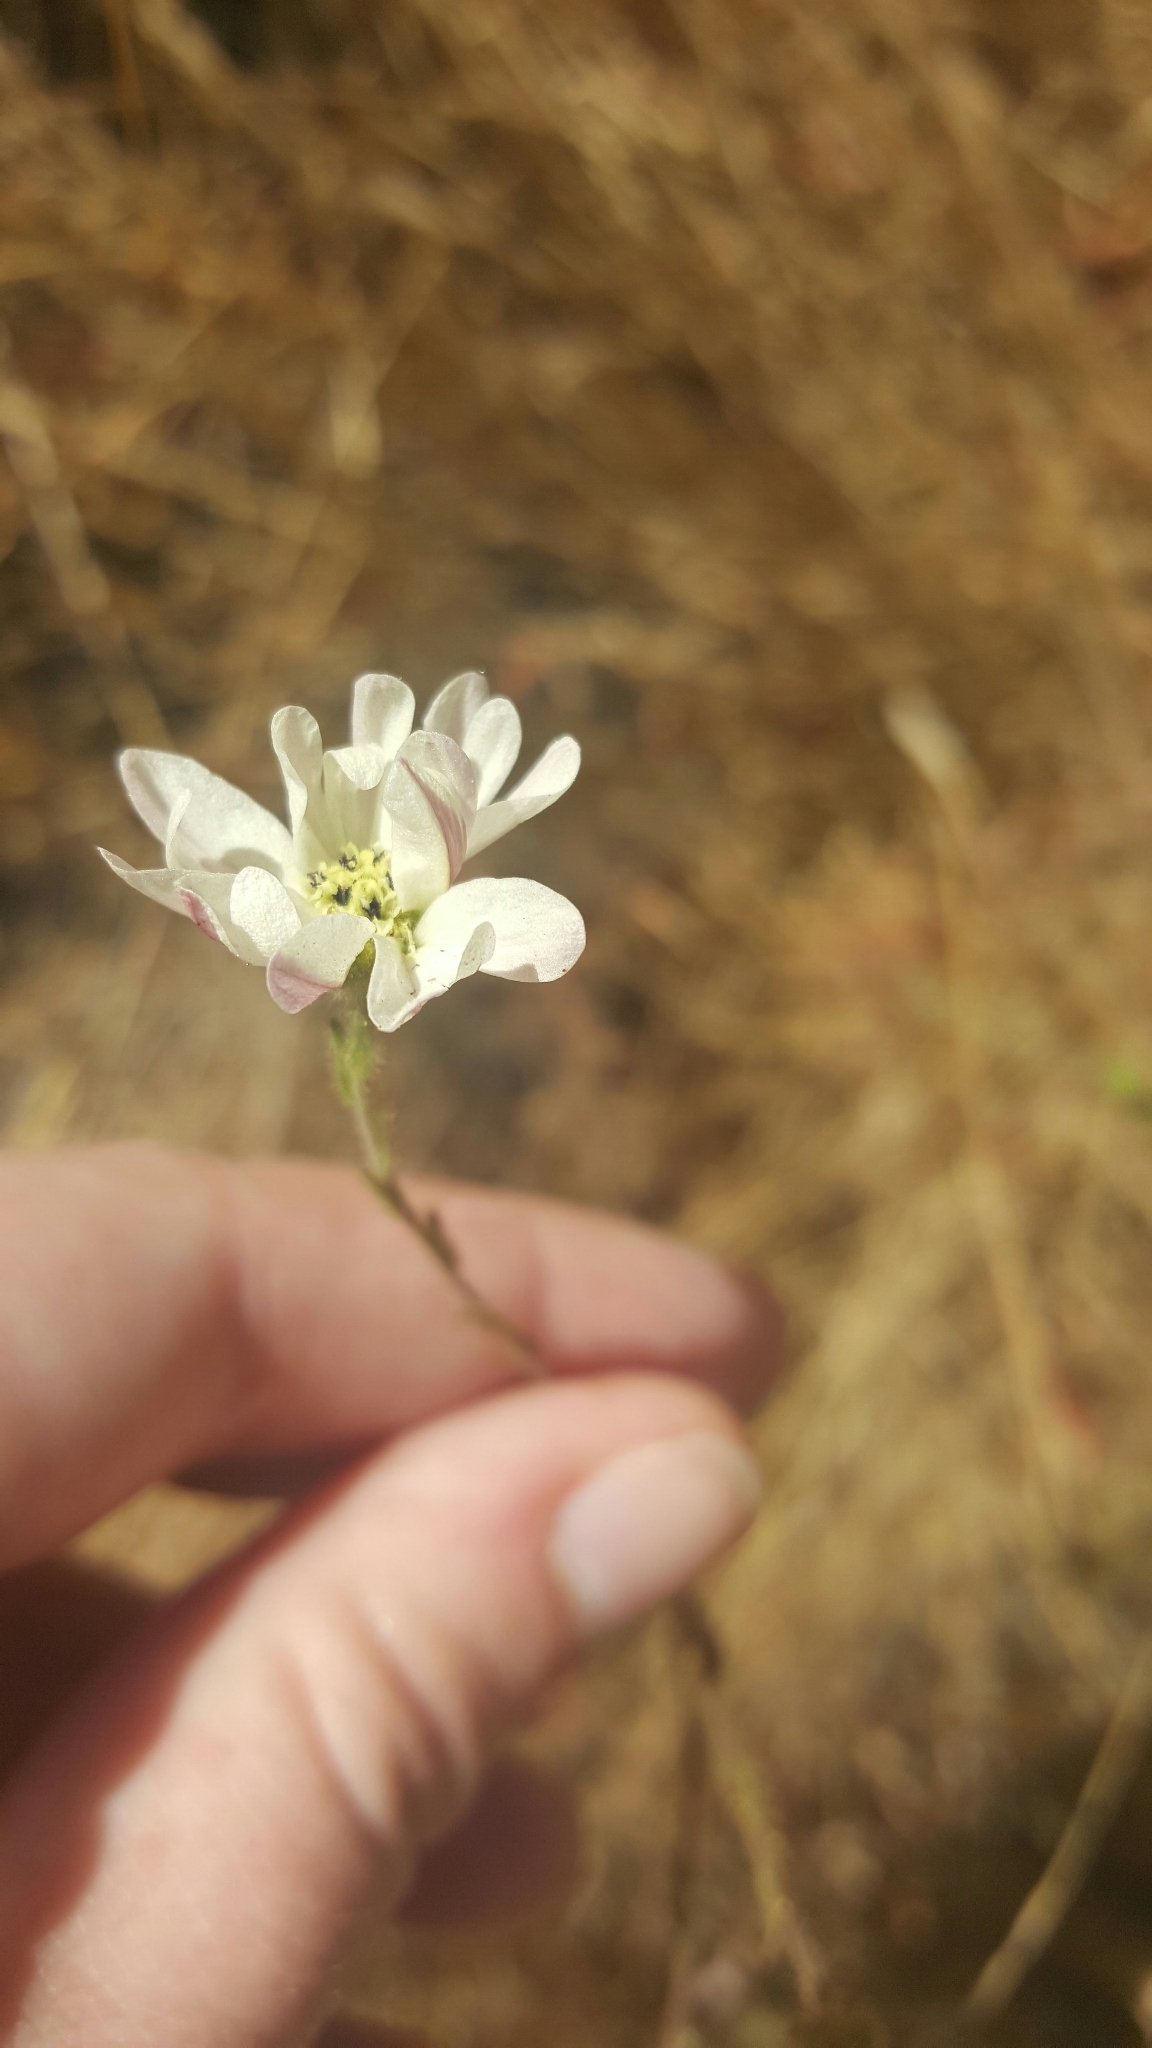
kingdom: Plantae
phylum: Tracheophyta
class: Magnoliopsida
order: Asterales
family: Asteraceae
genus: Hemizonia
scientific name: Hemizonia congesta
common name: Hayfield tarweed
